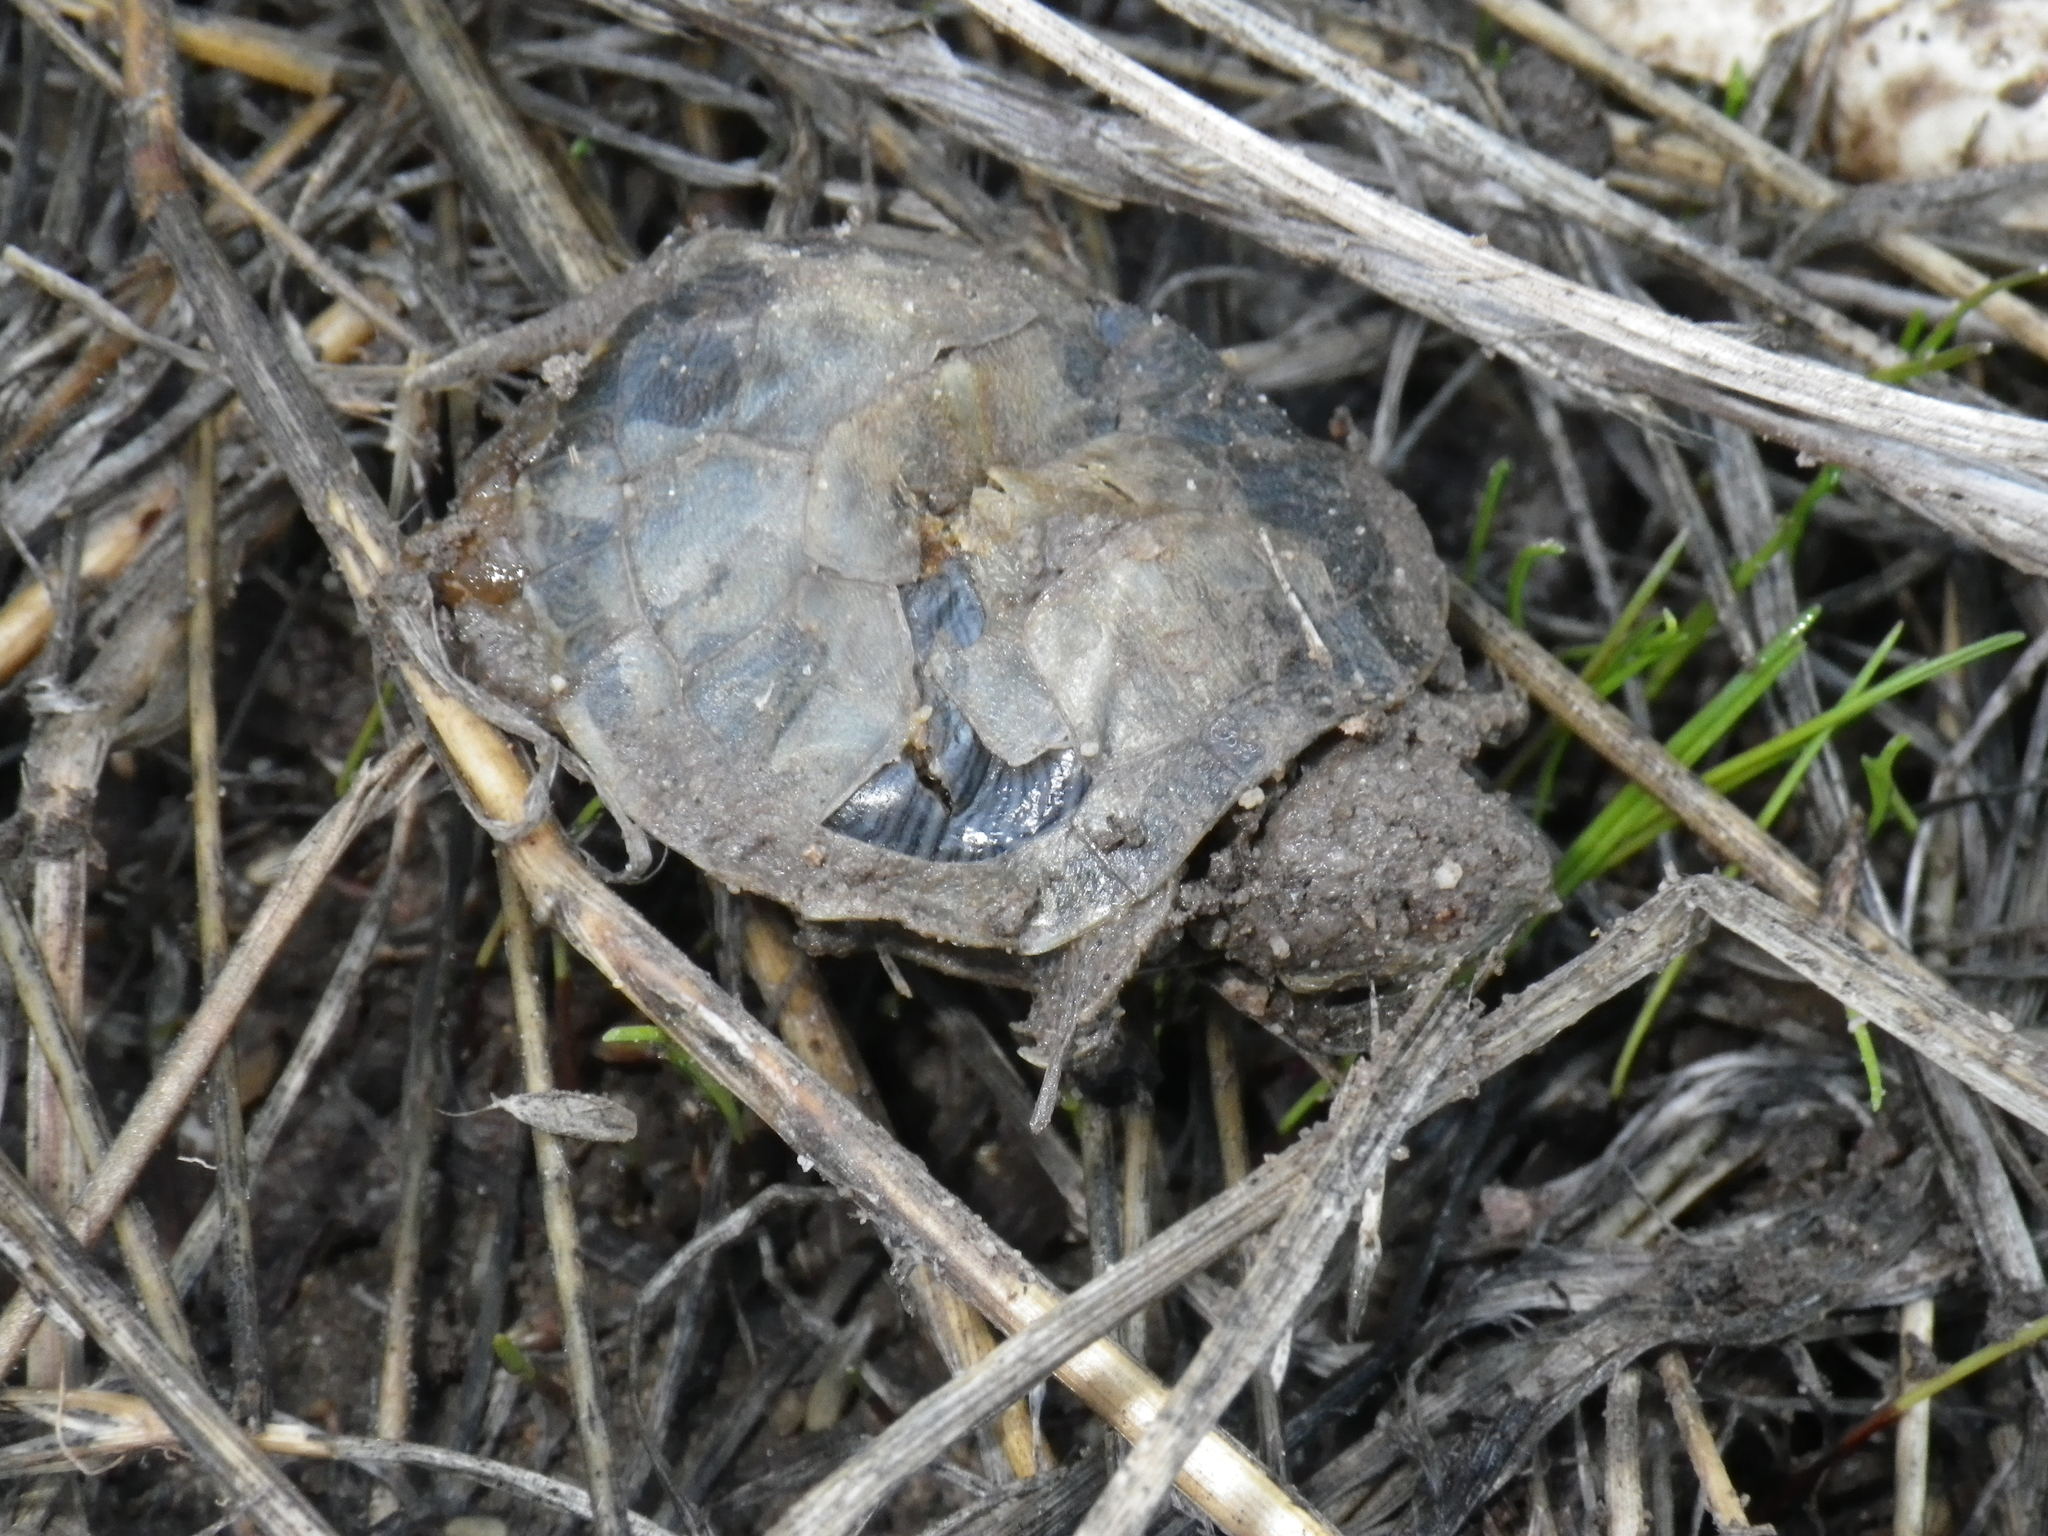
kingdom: Animalia
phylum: Chordata
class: Testudines
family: Emydidae
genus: Trachemys
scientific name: Trachemys scripta
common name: Slider
